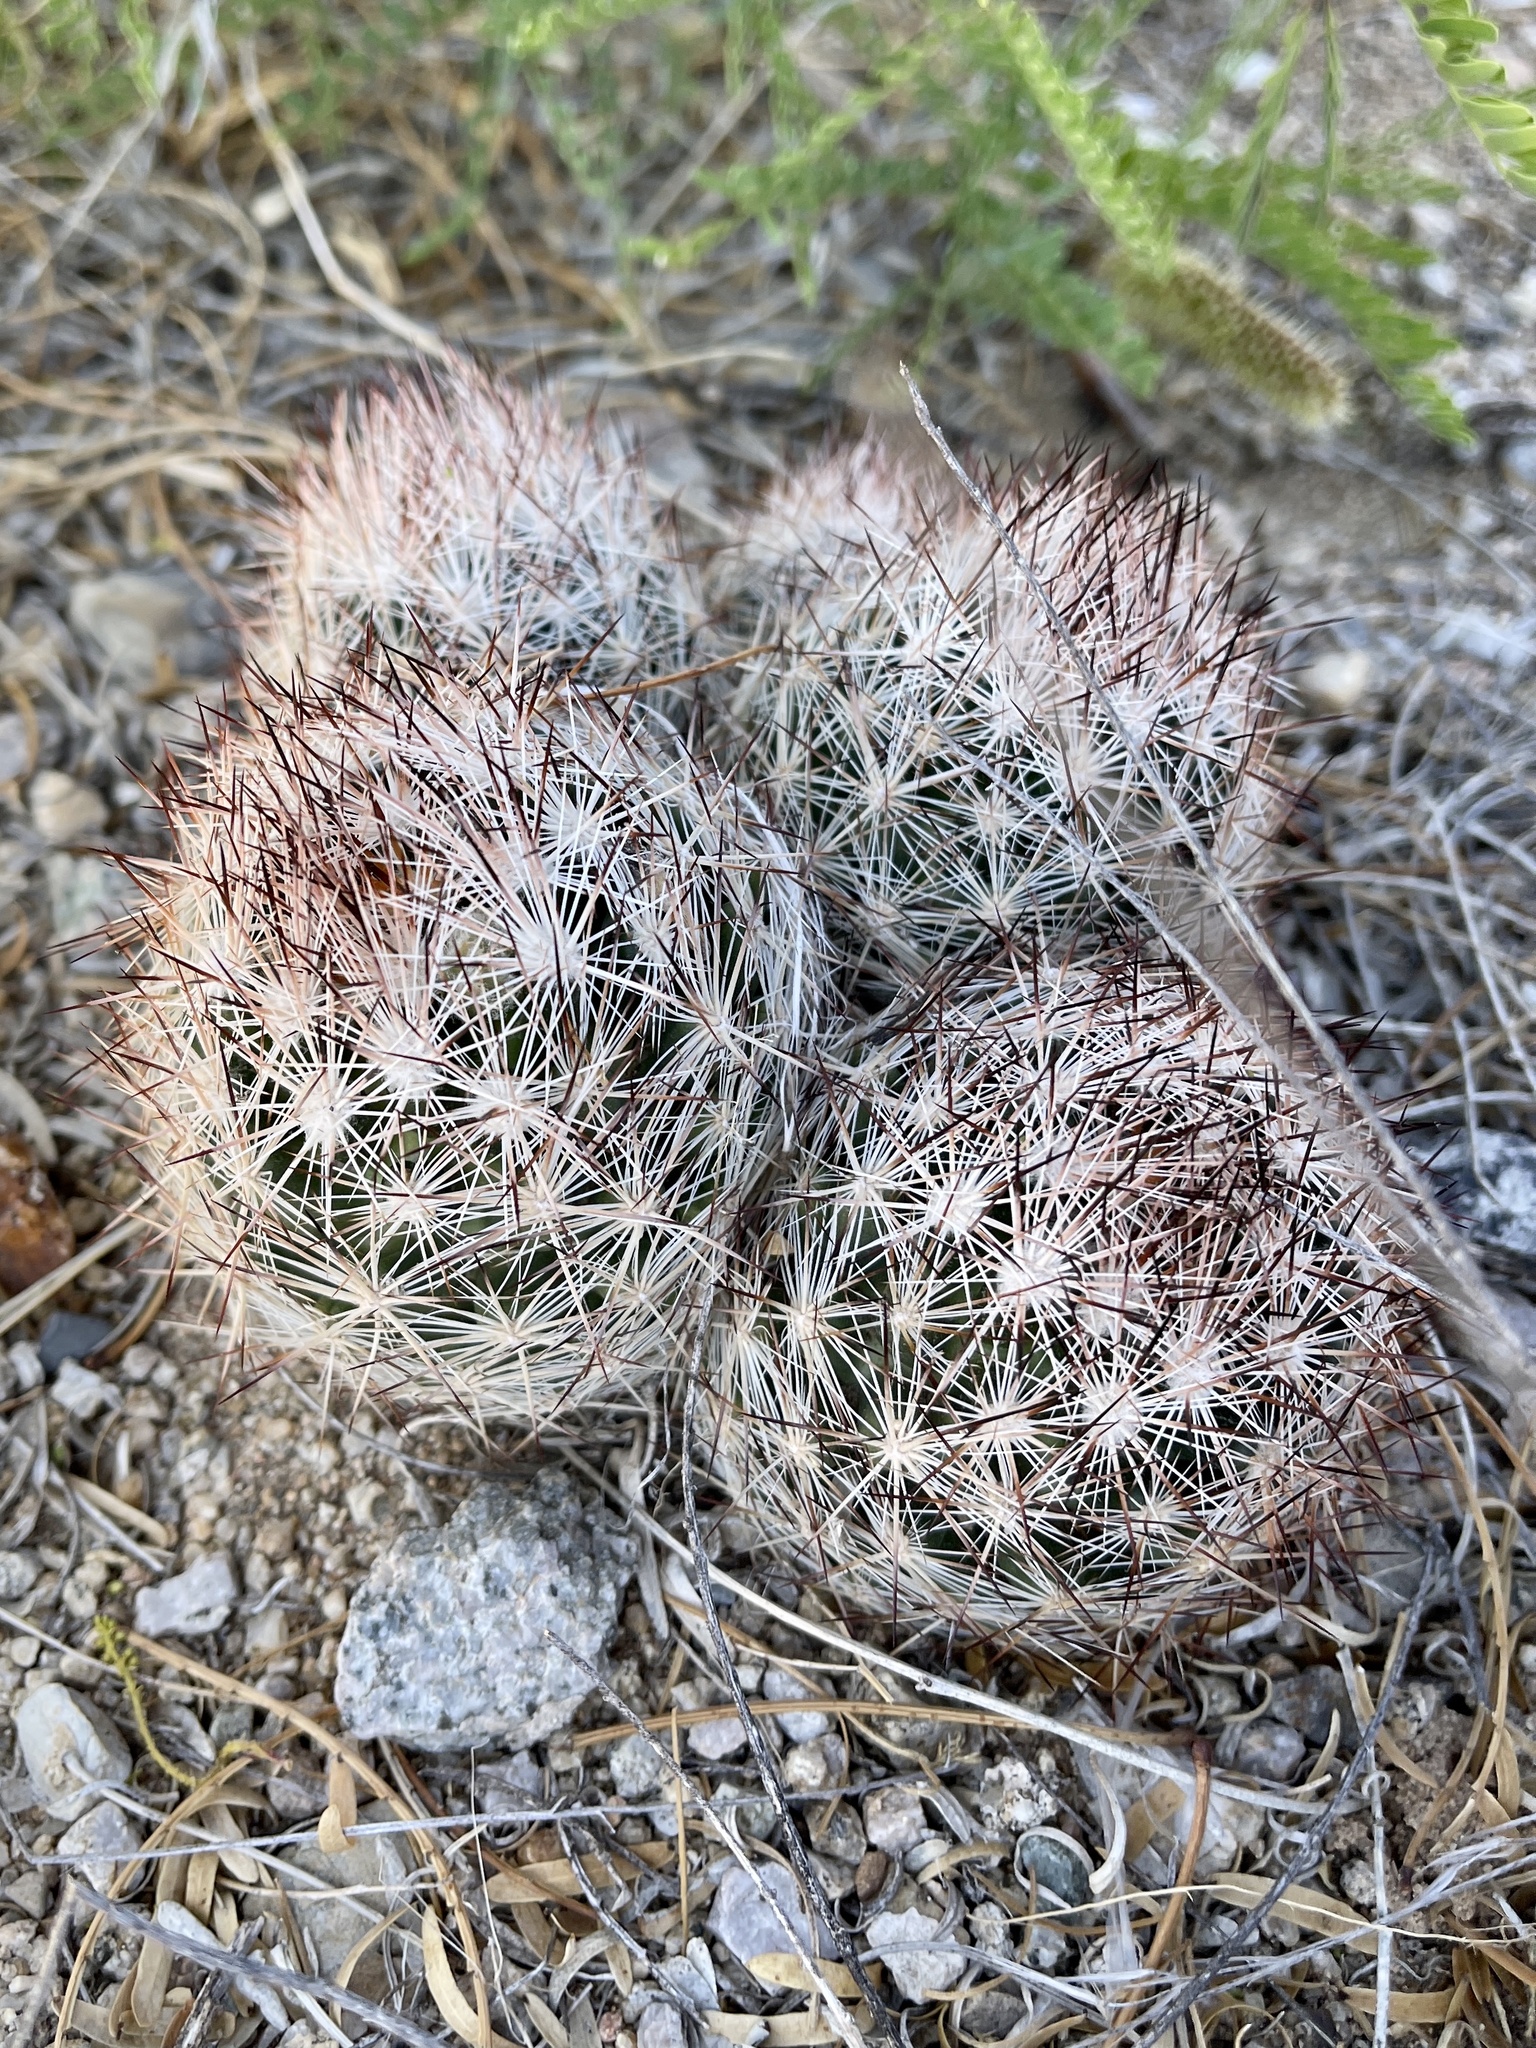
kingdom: Plantae
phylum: Tracheophyta
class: Magnoliopsida
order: Caryophyllales
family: Cactaceae
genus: Pelecyphora
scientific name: Pelecyphora vivipara
